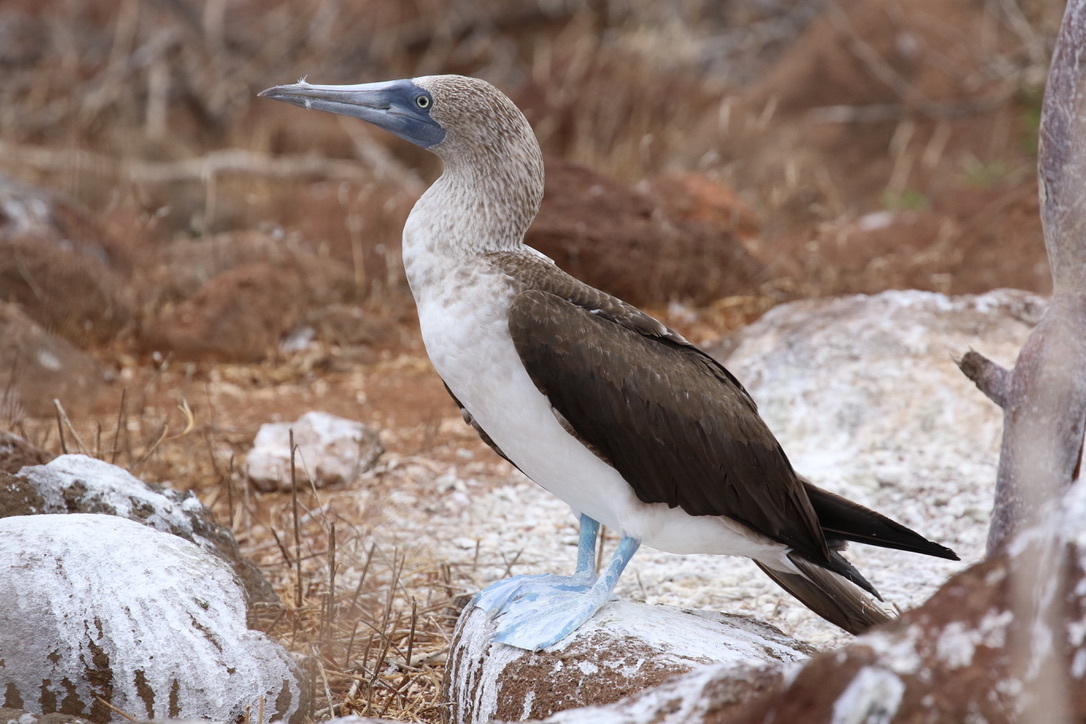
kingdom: Animalia
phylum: Chordata
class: Aves
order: Suliformes
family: Sulidae
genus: Sula
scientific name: Sula nebouxii
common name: Blue-footed booby
